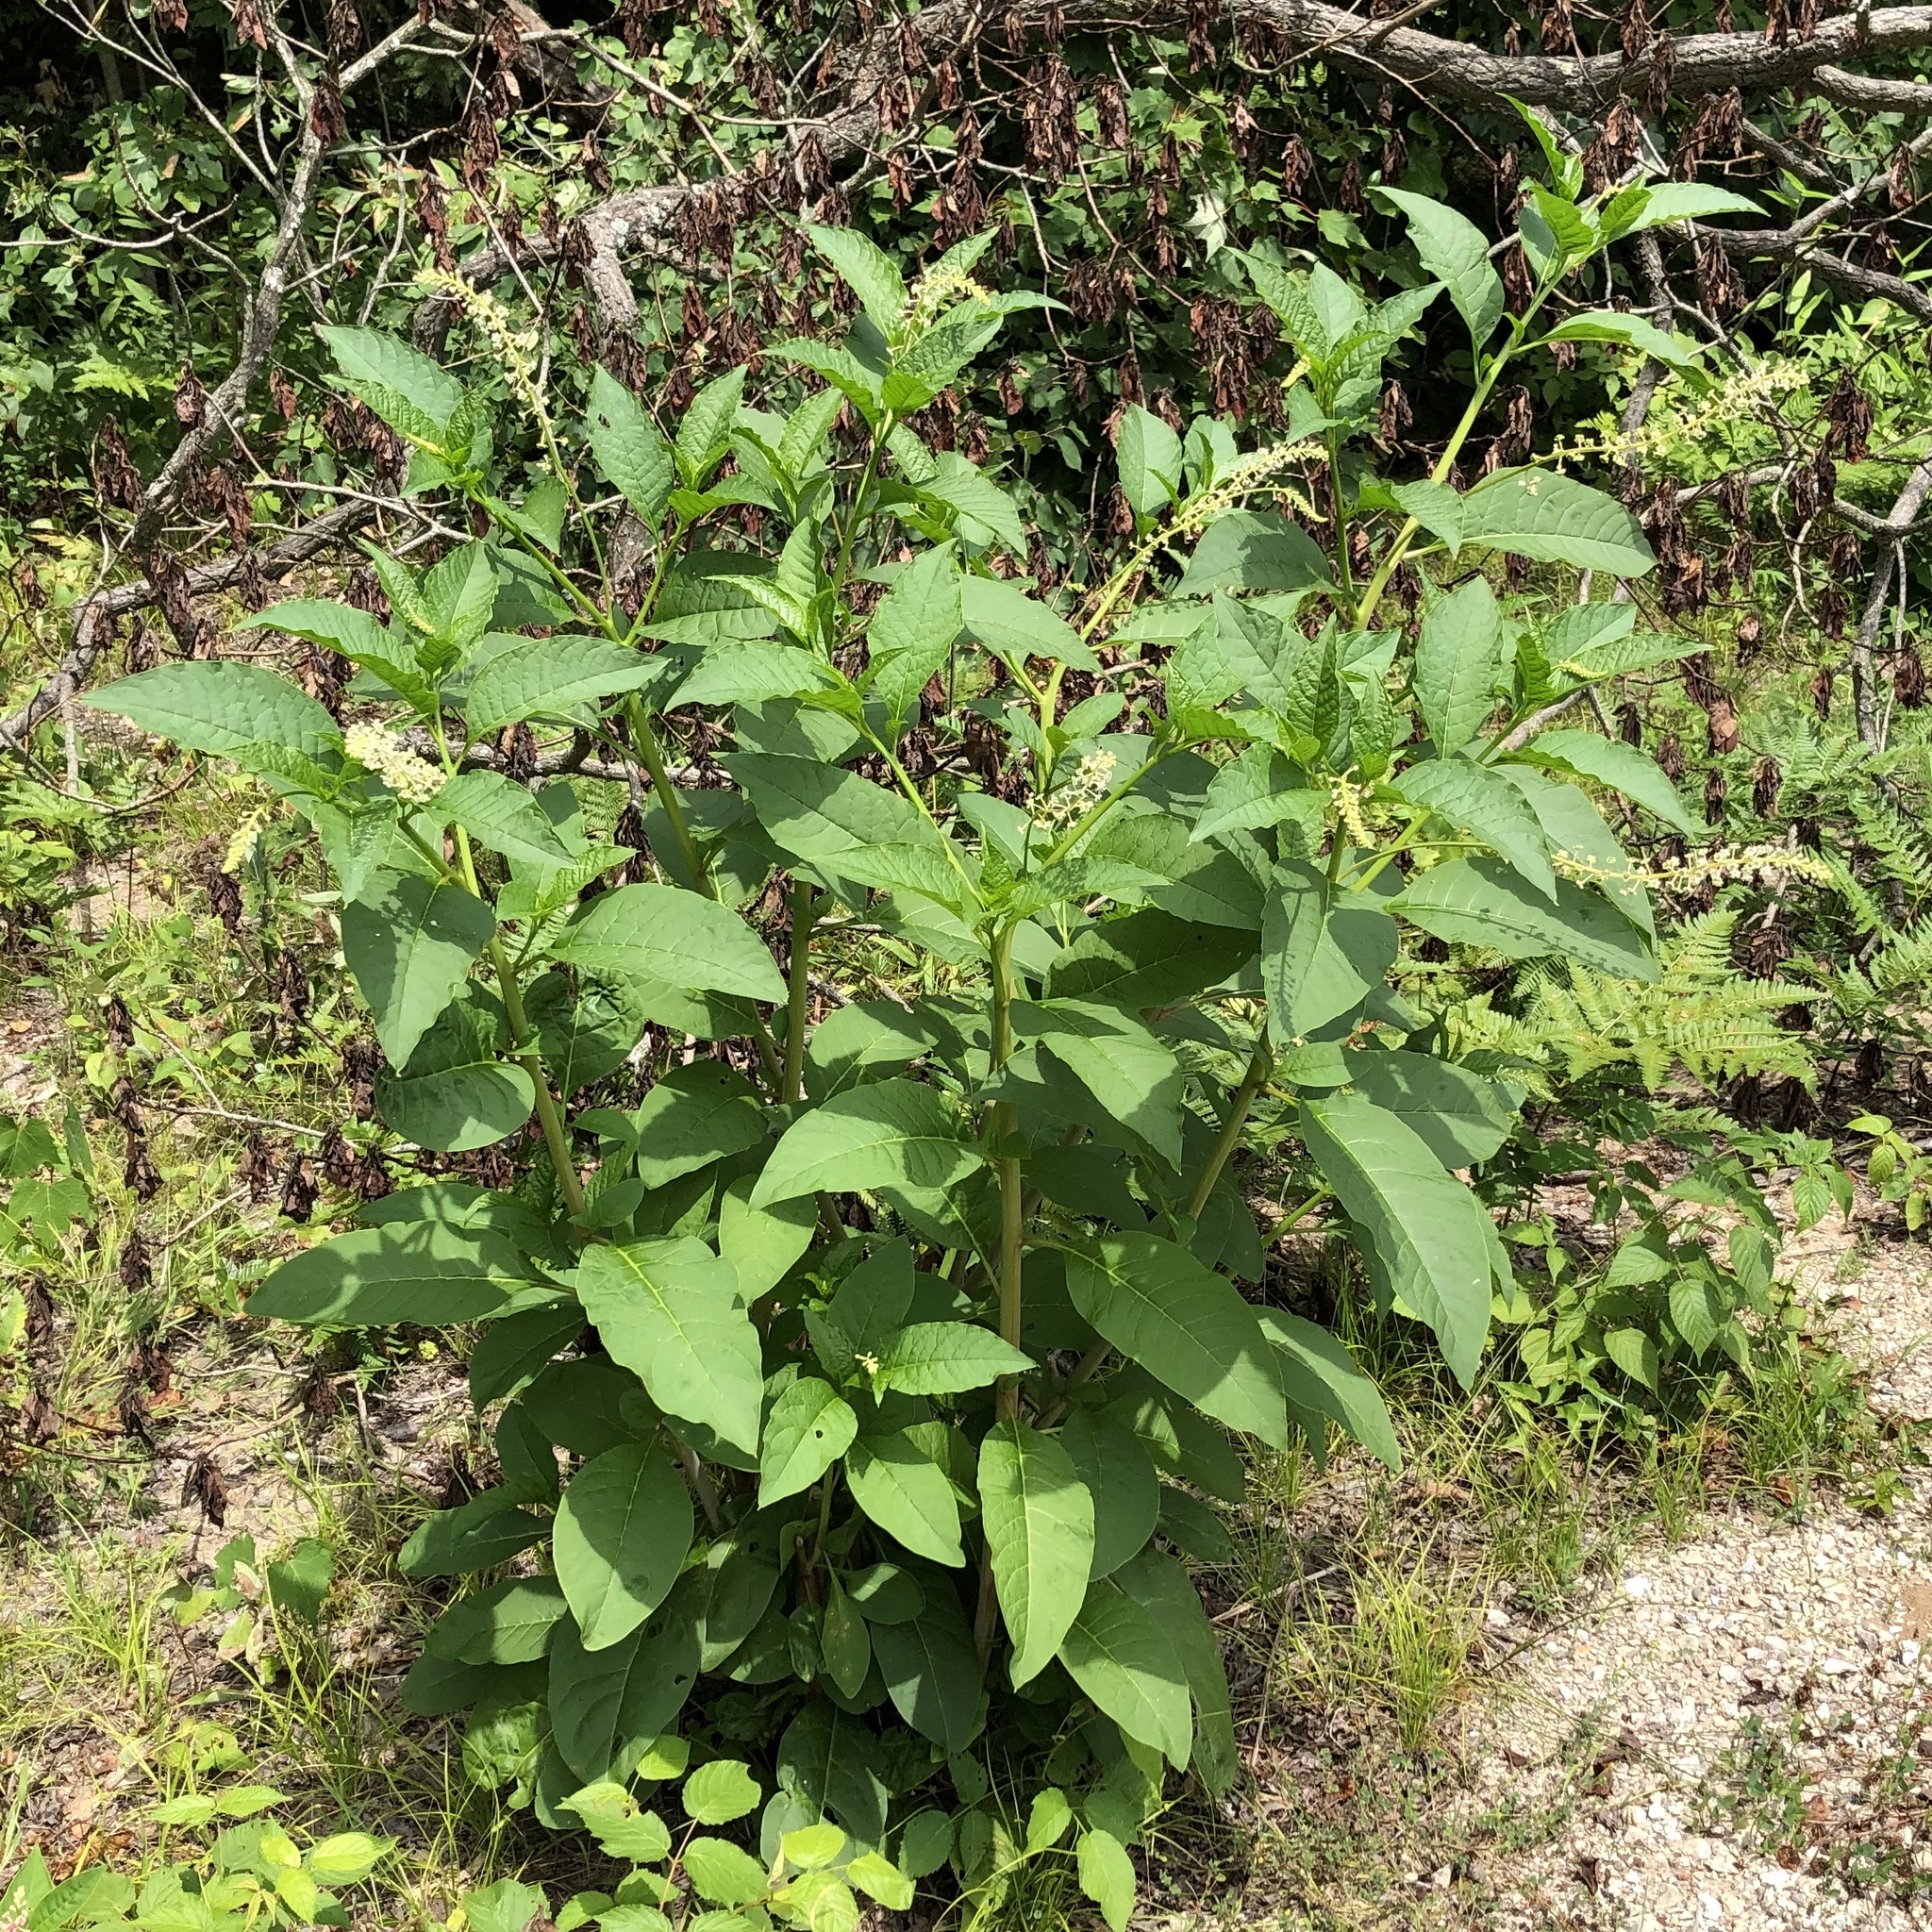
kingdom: Plantae
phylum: Tracheophyta
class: Magnoliopsida
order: Caryophyllales
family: Phytolaccaceae
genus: Phytolacca
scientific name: Phytolacca americana
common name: American pokeweed
